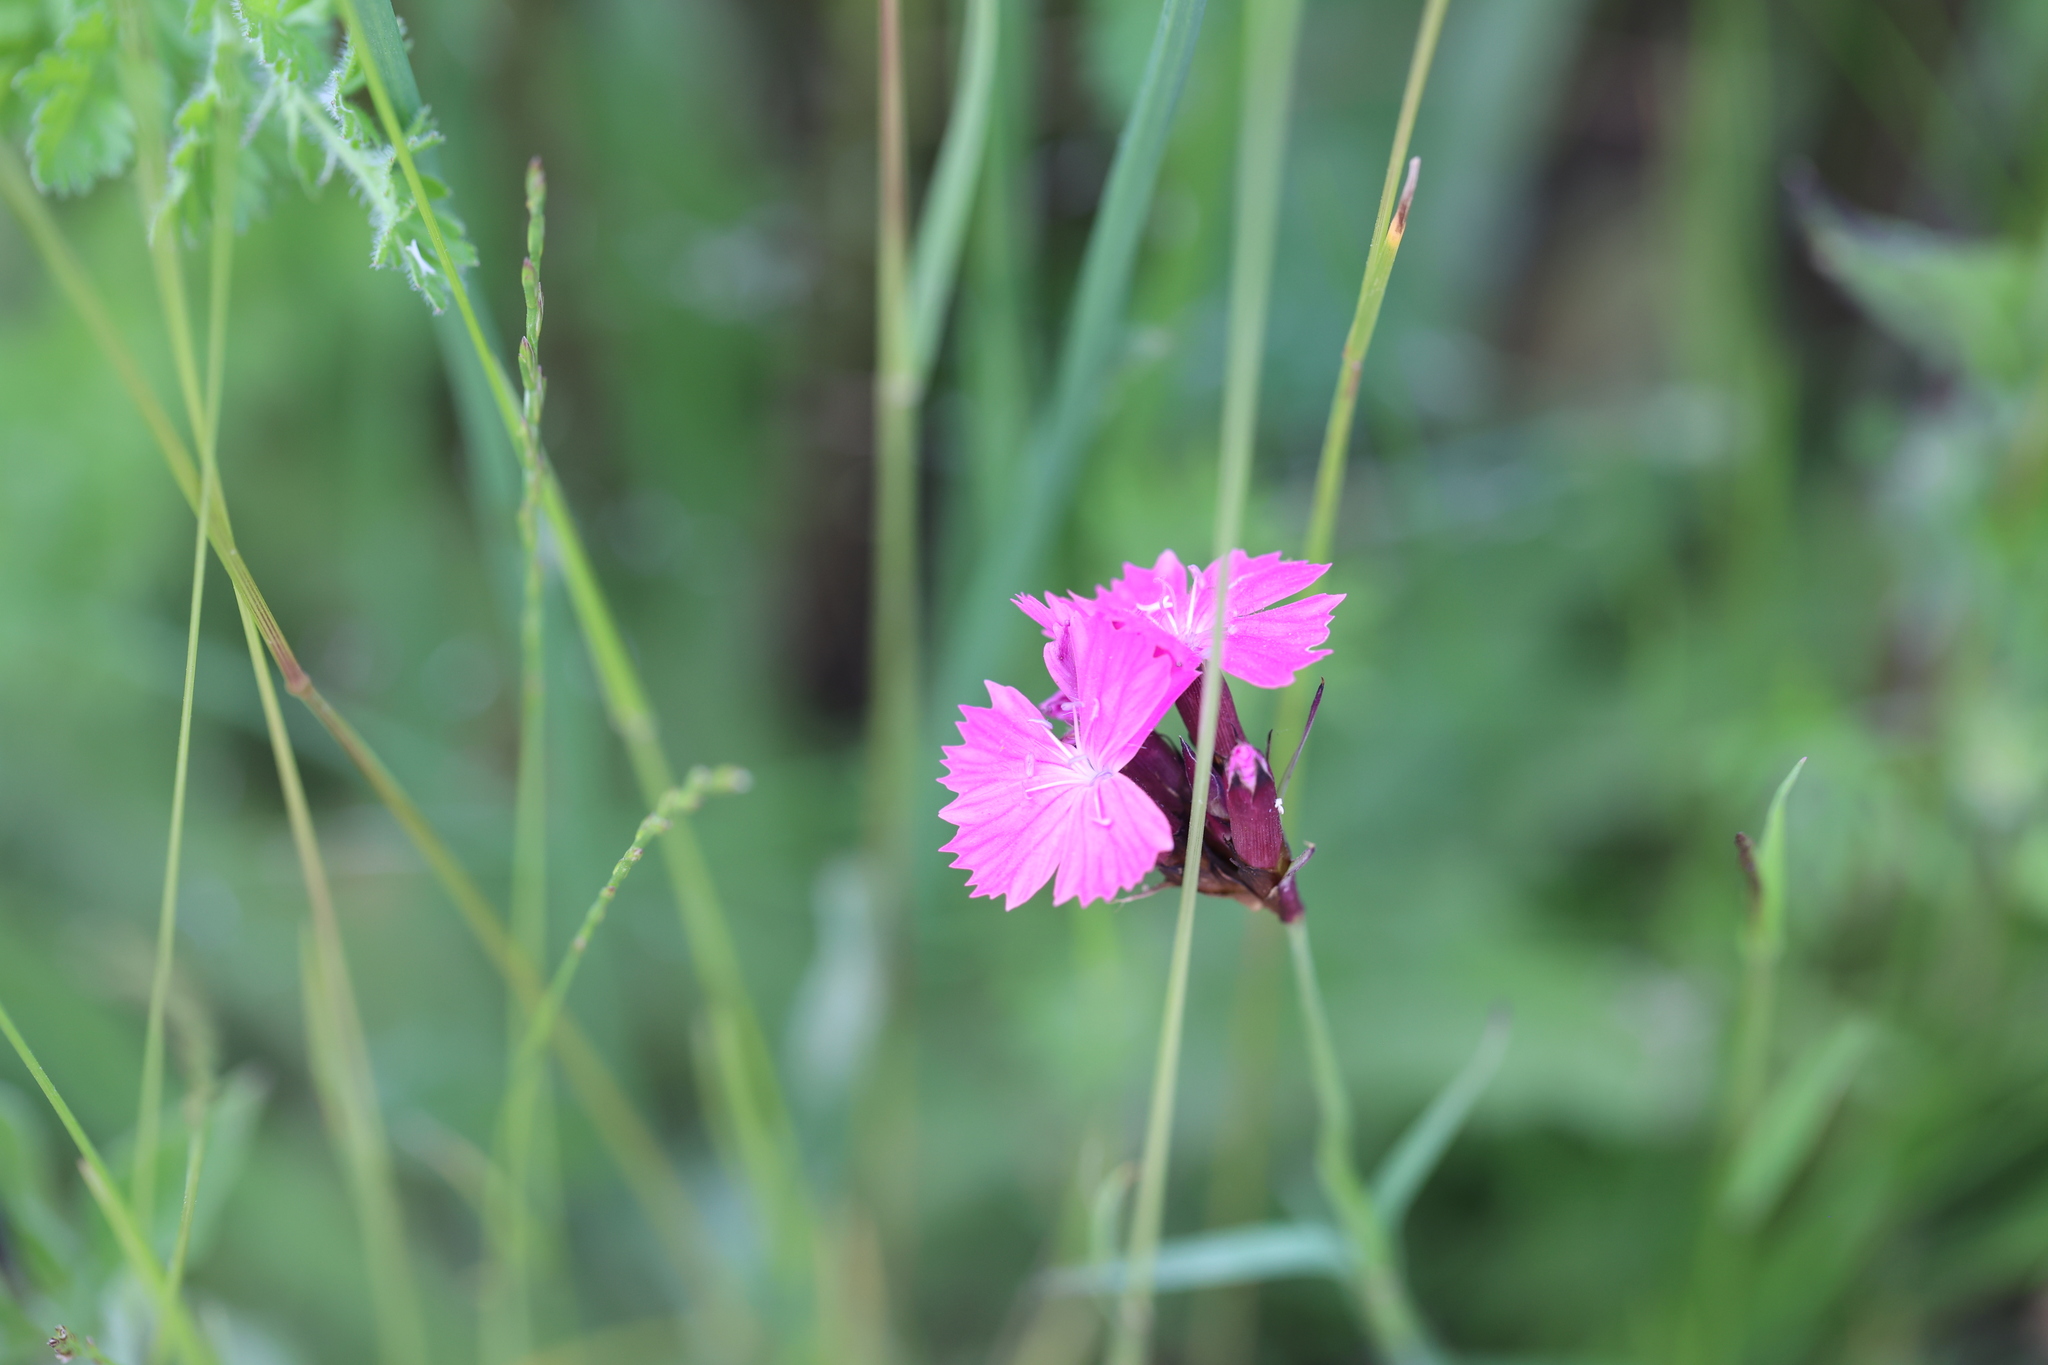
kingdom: Plantae
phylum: Tracheophyta
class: Magnoliopsida
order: Caryophyllales
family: Caryophyllaceae
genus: Dianthus
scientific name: Dianthus carthusianorum
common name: Carthusian pink
